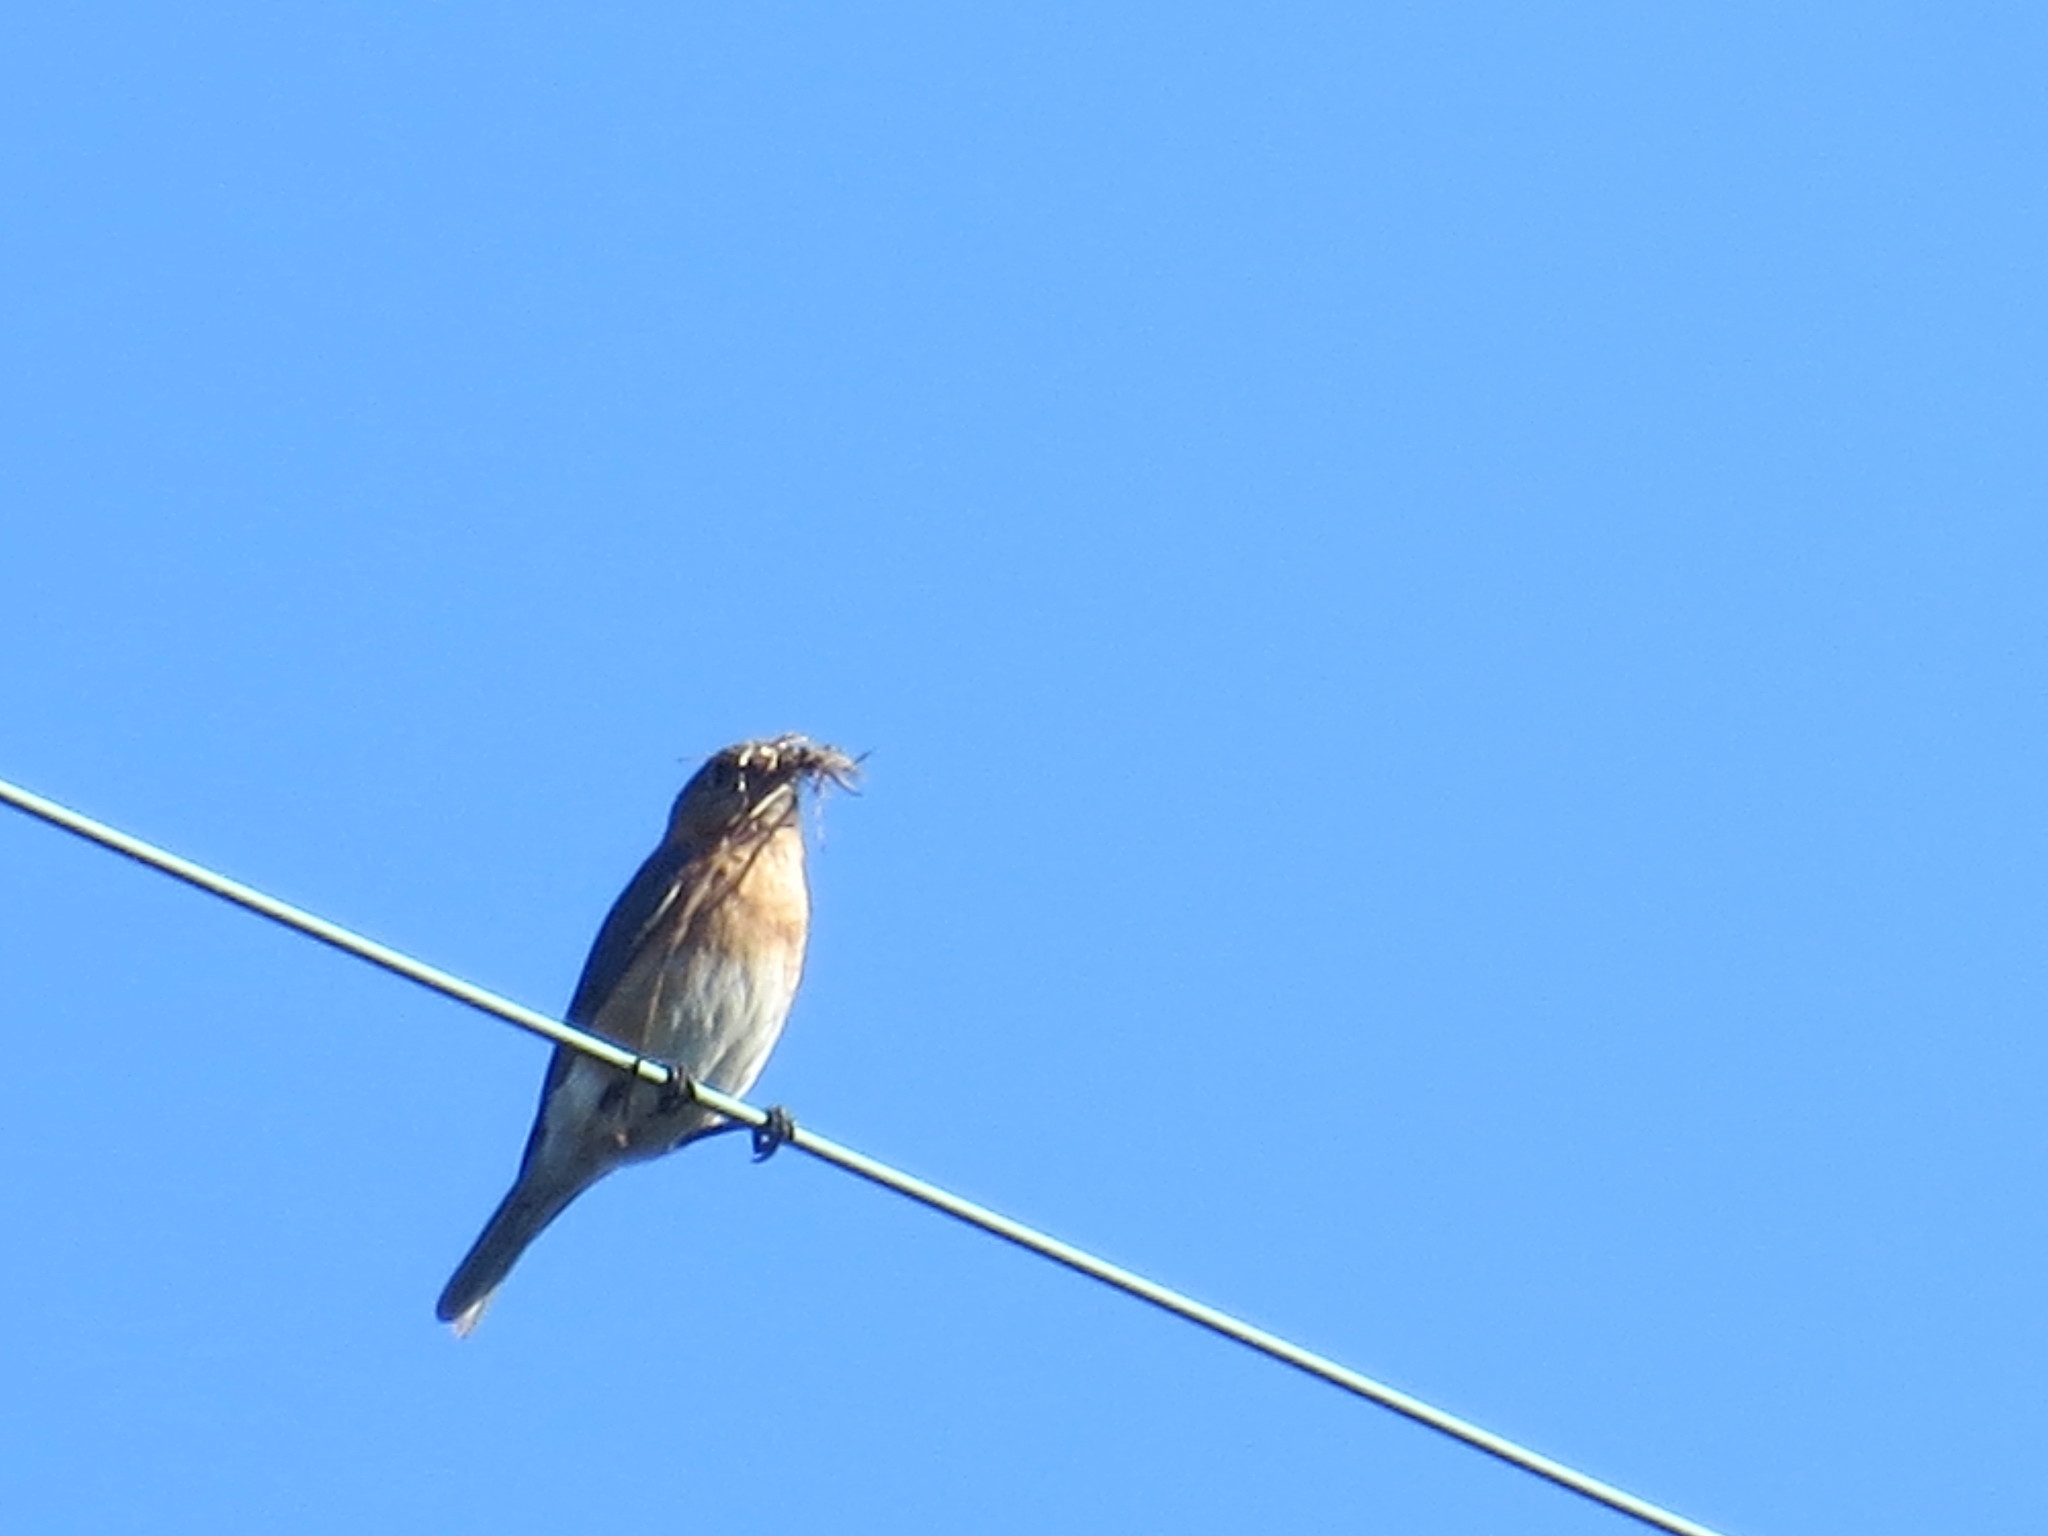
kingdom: Animalia
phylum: Chordata
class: Aves
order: Passeriformes
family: Turdidae
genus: Sialia
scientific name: Sialia sialis
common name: Eastern bluebird
